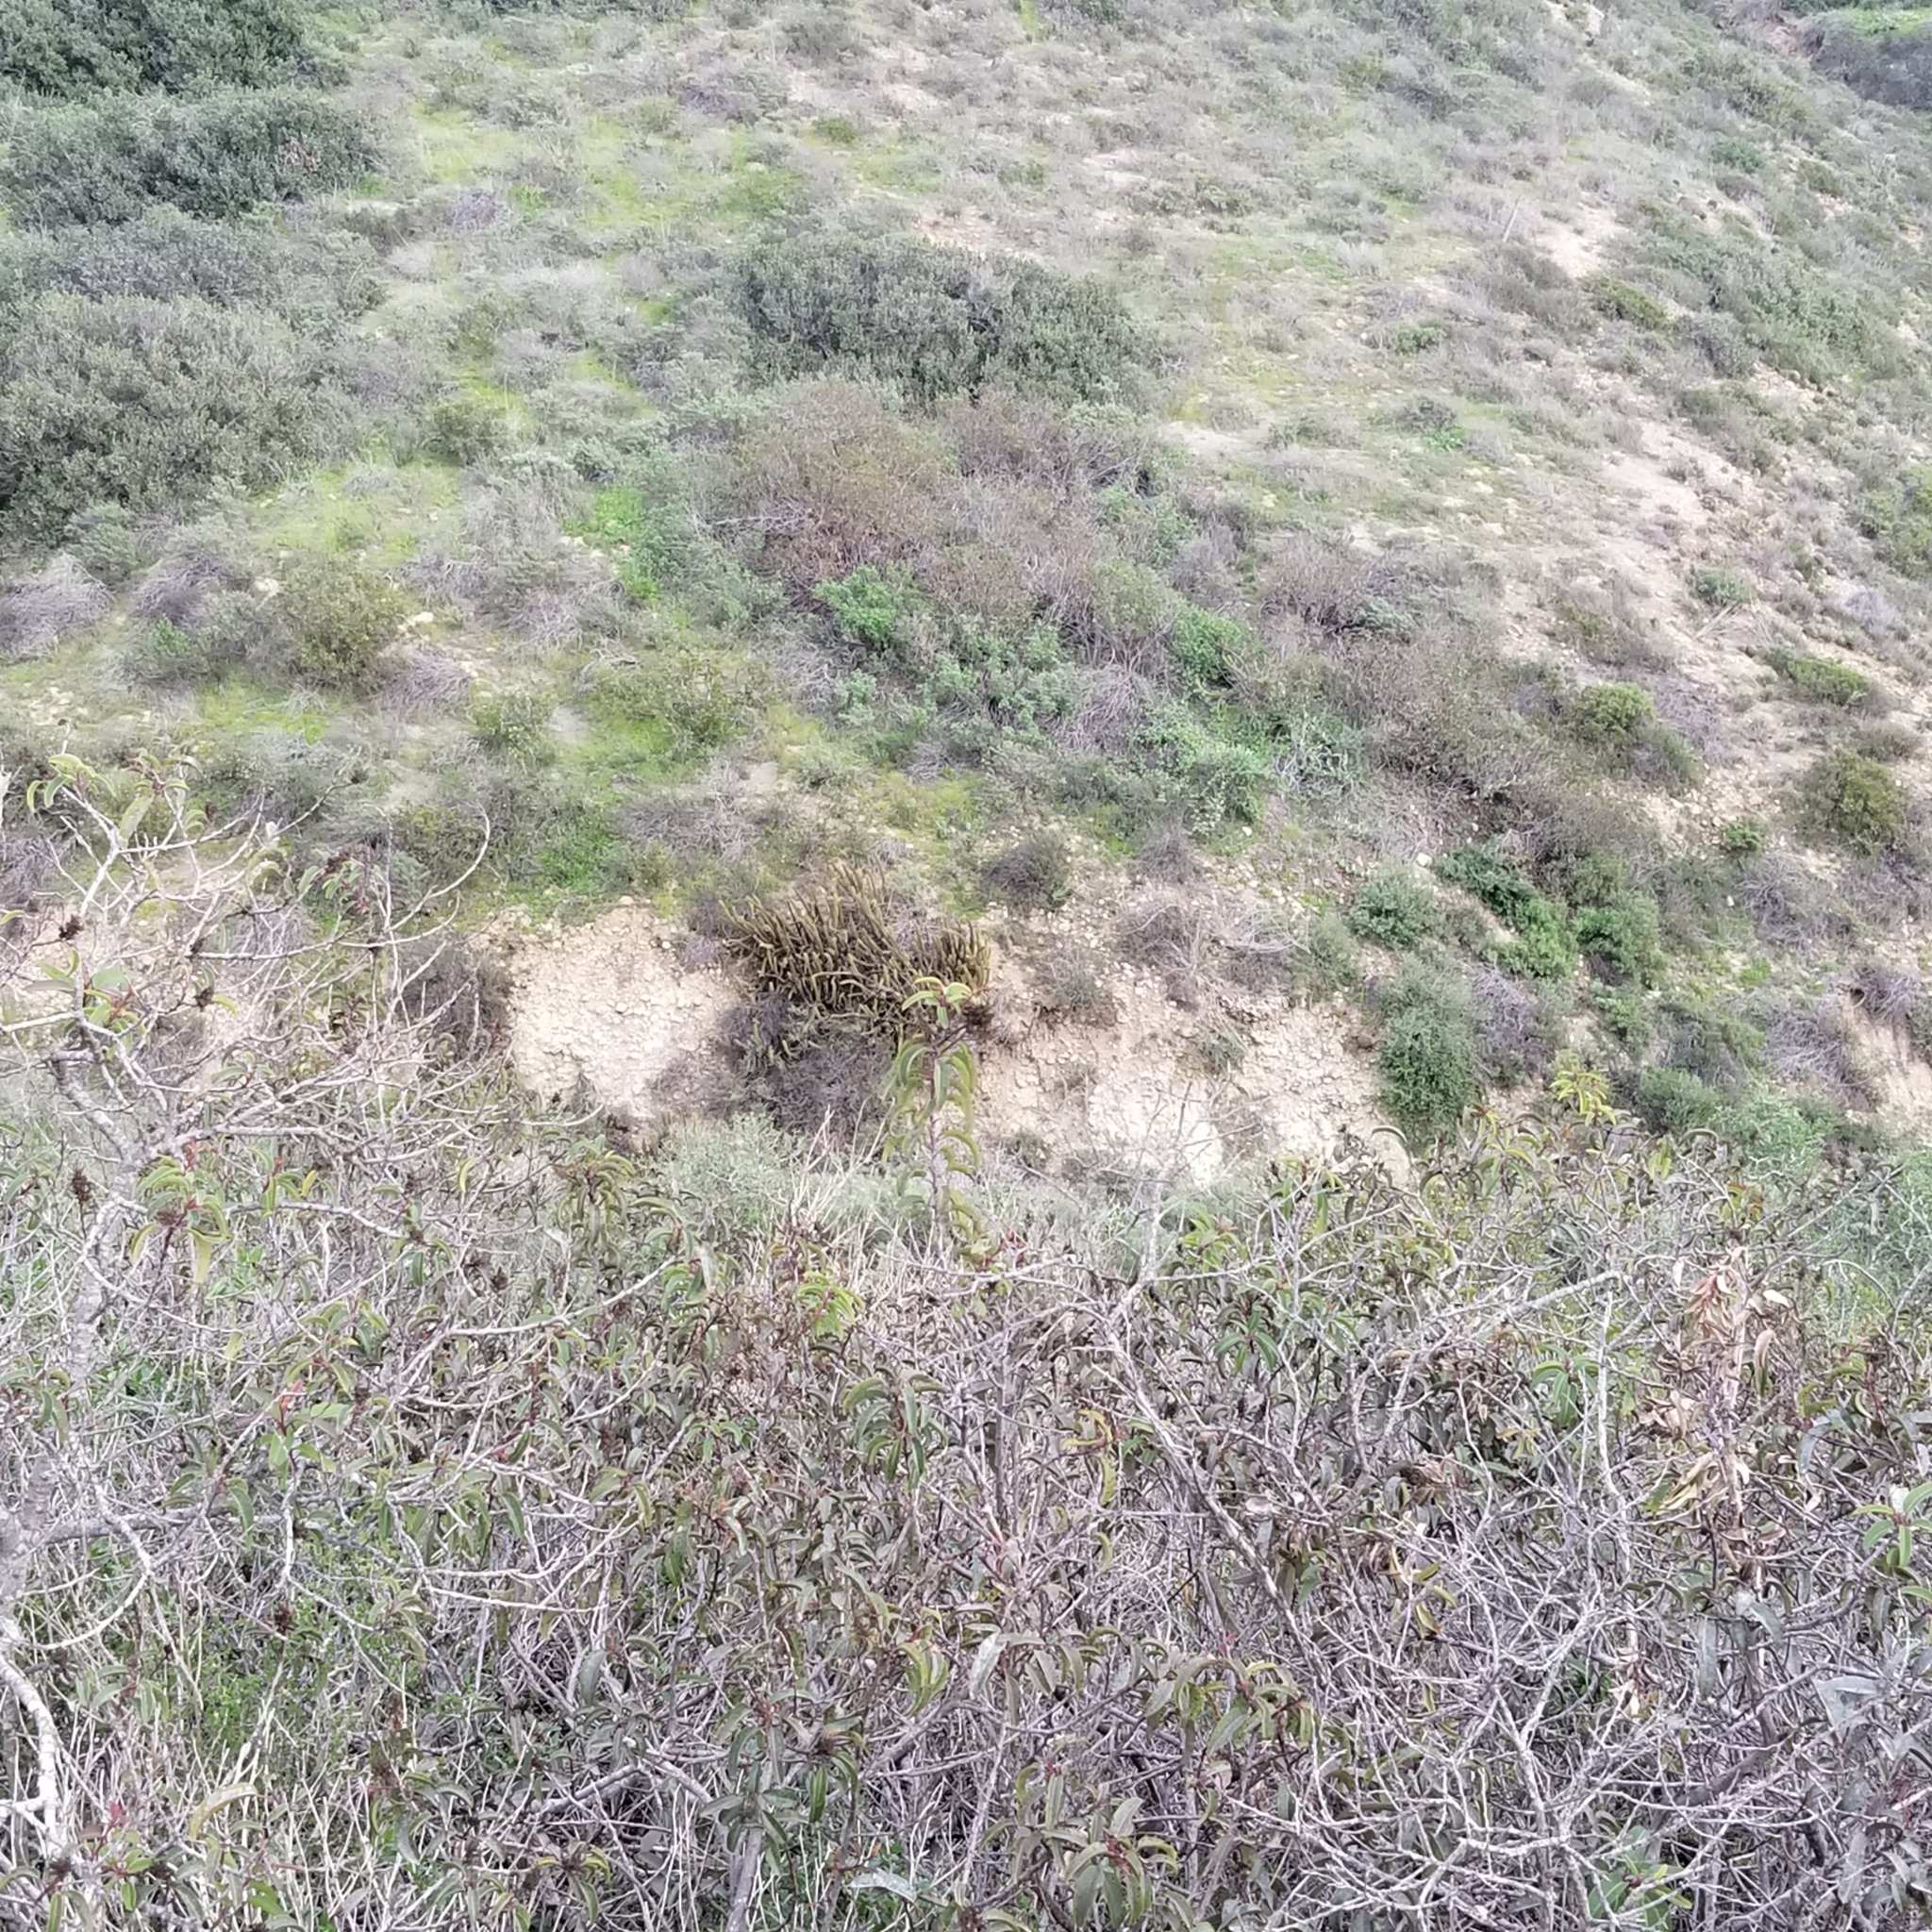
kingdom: Plantae
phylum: Tracheophyta
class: Magnoliopsida
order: Caryophyllales
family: Cactaceae
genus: Bergerocactus
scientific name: Bergerocactus emoryi
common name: Golden snakecactus
